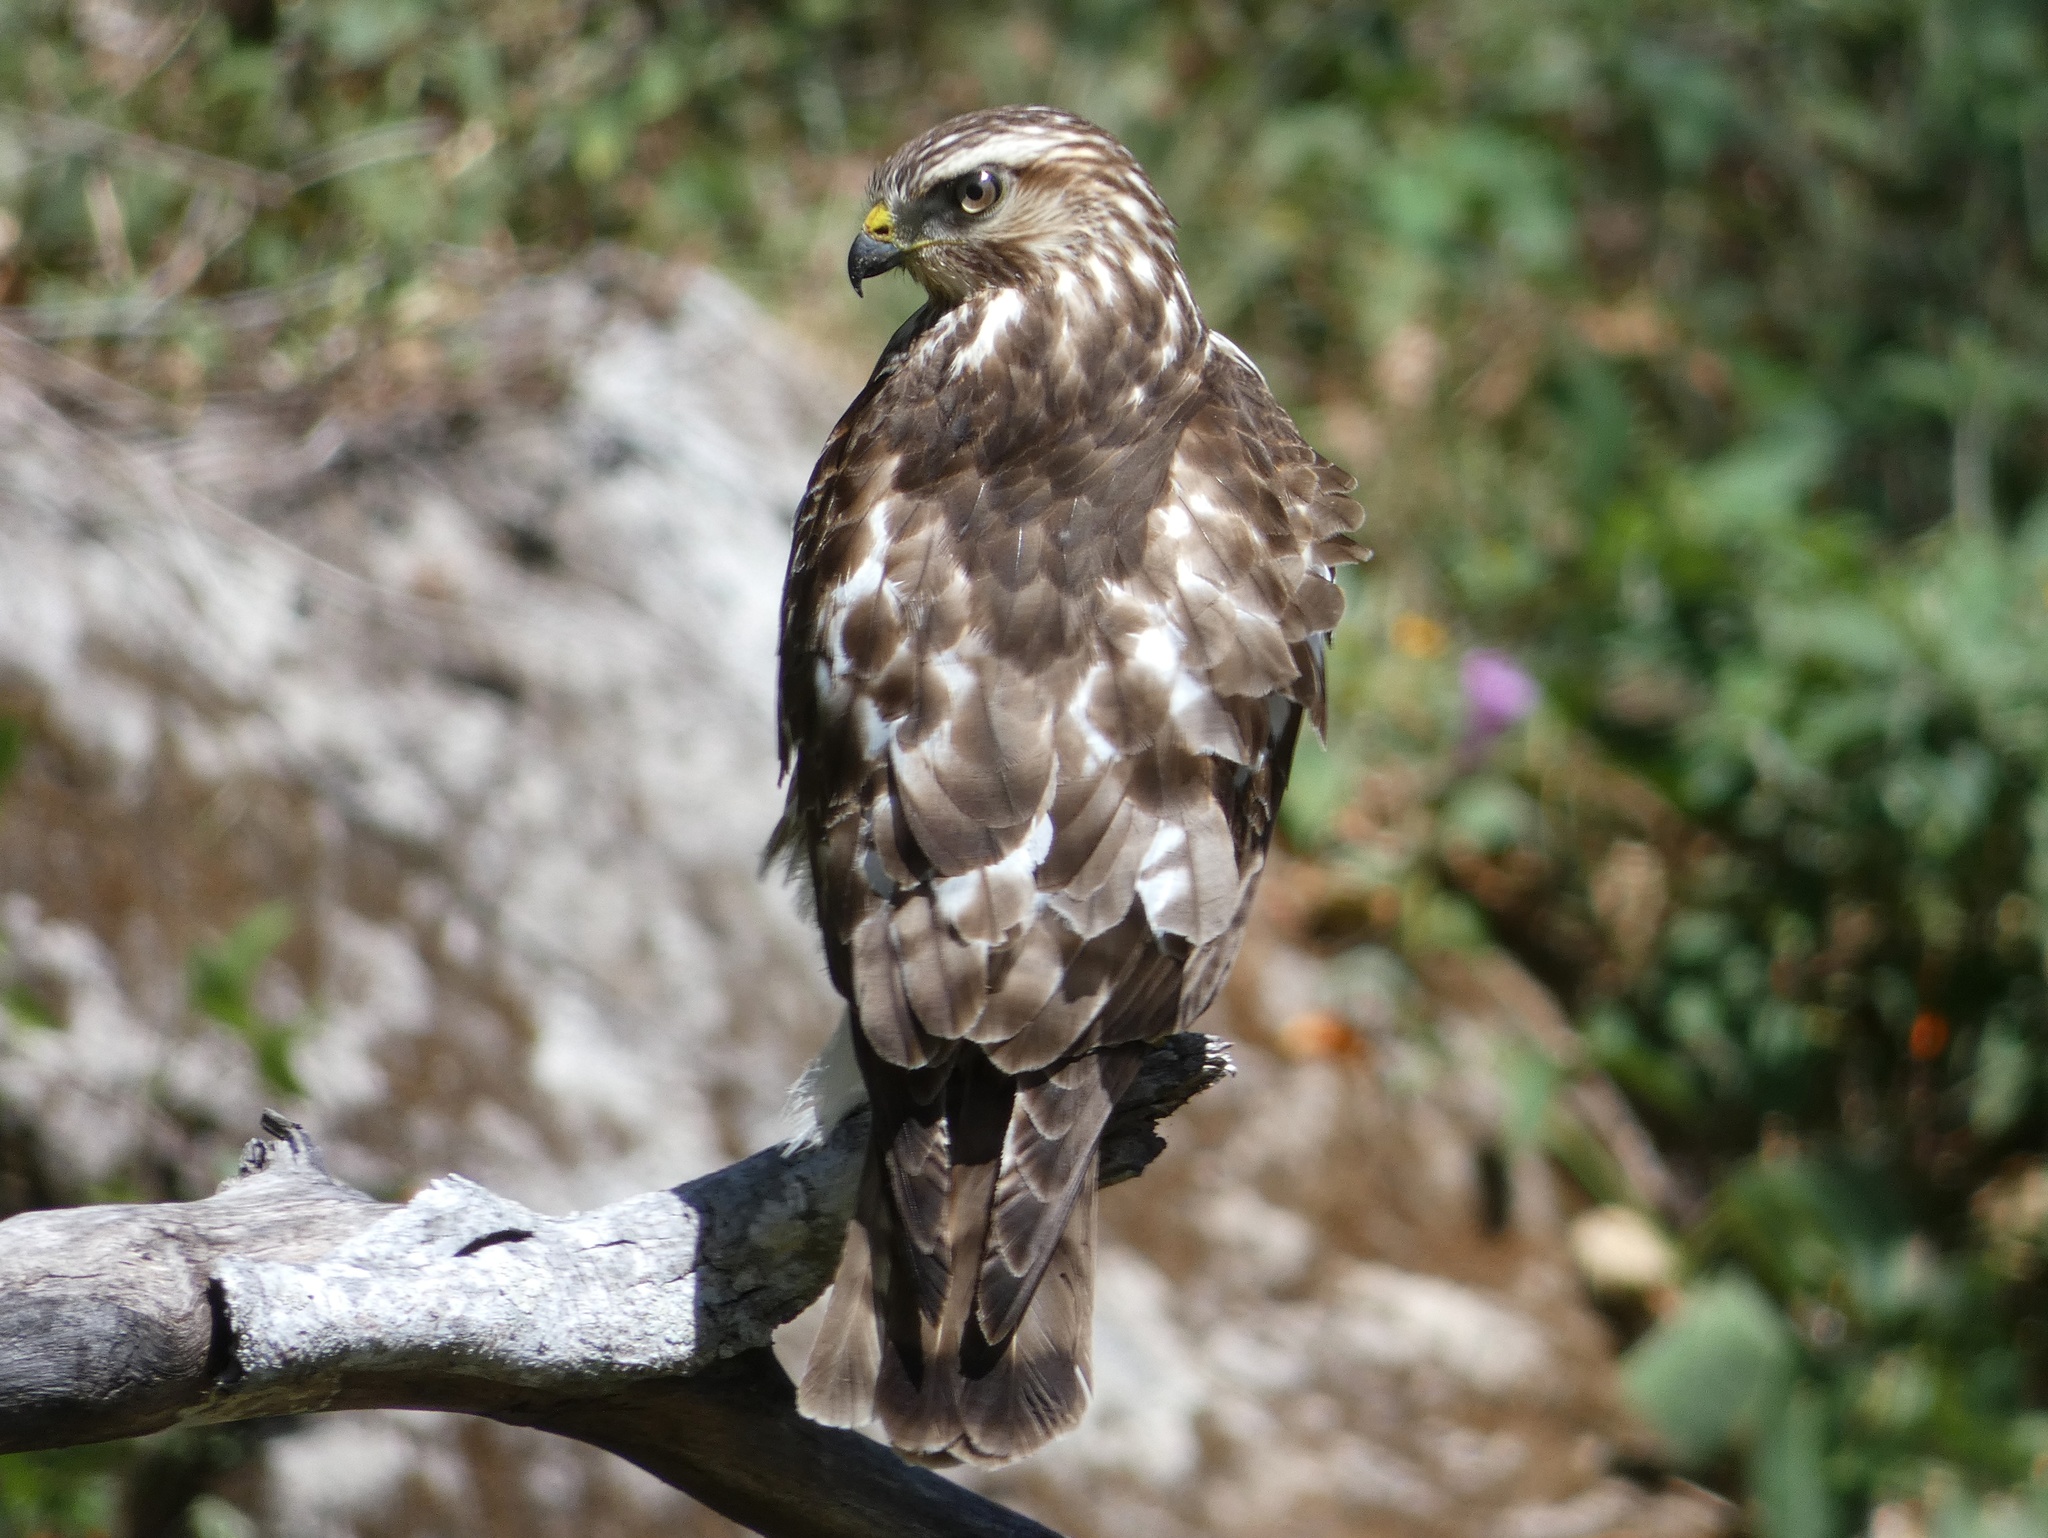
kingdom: Animalia
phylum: Chordata
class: Aves
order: Accipitriformes
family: Accipitridae
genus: Buteo
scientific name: Buteo platypterus
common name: Broad-winged hawk
